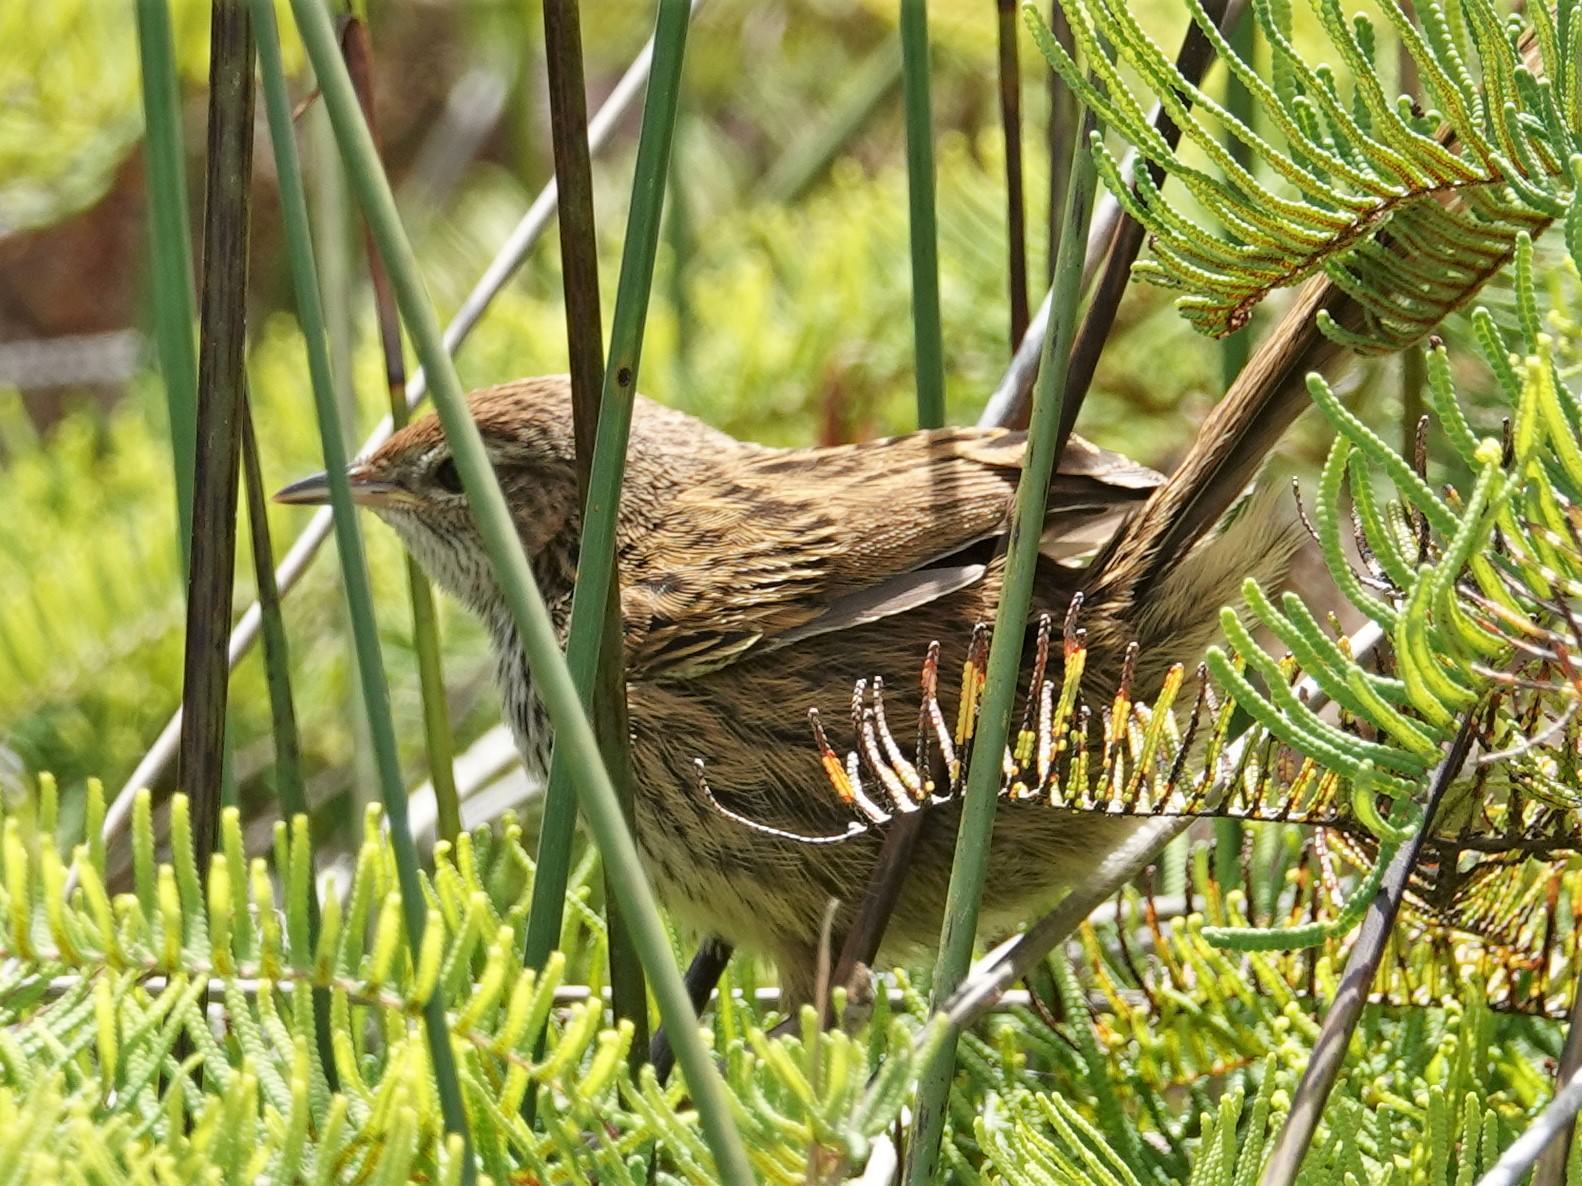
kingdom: Animalia
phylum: Chordata
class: Aves
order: Passeriformes
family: Locustellidae
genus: Megalurus
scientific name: Megalurus punctatus
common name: New zealand fernbird
